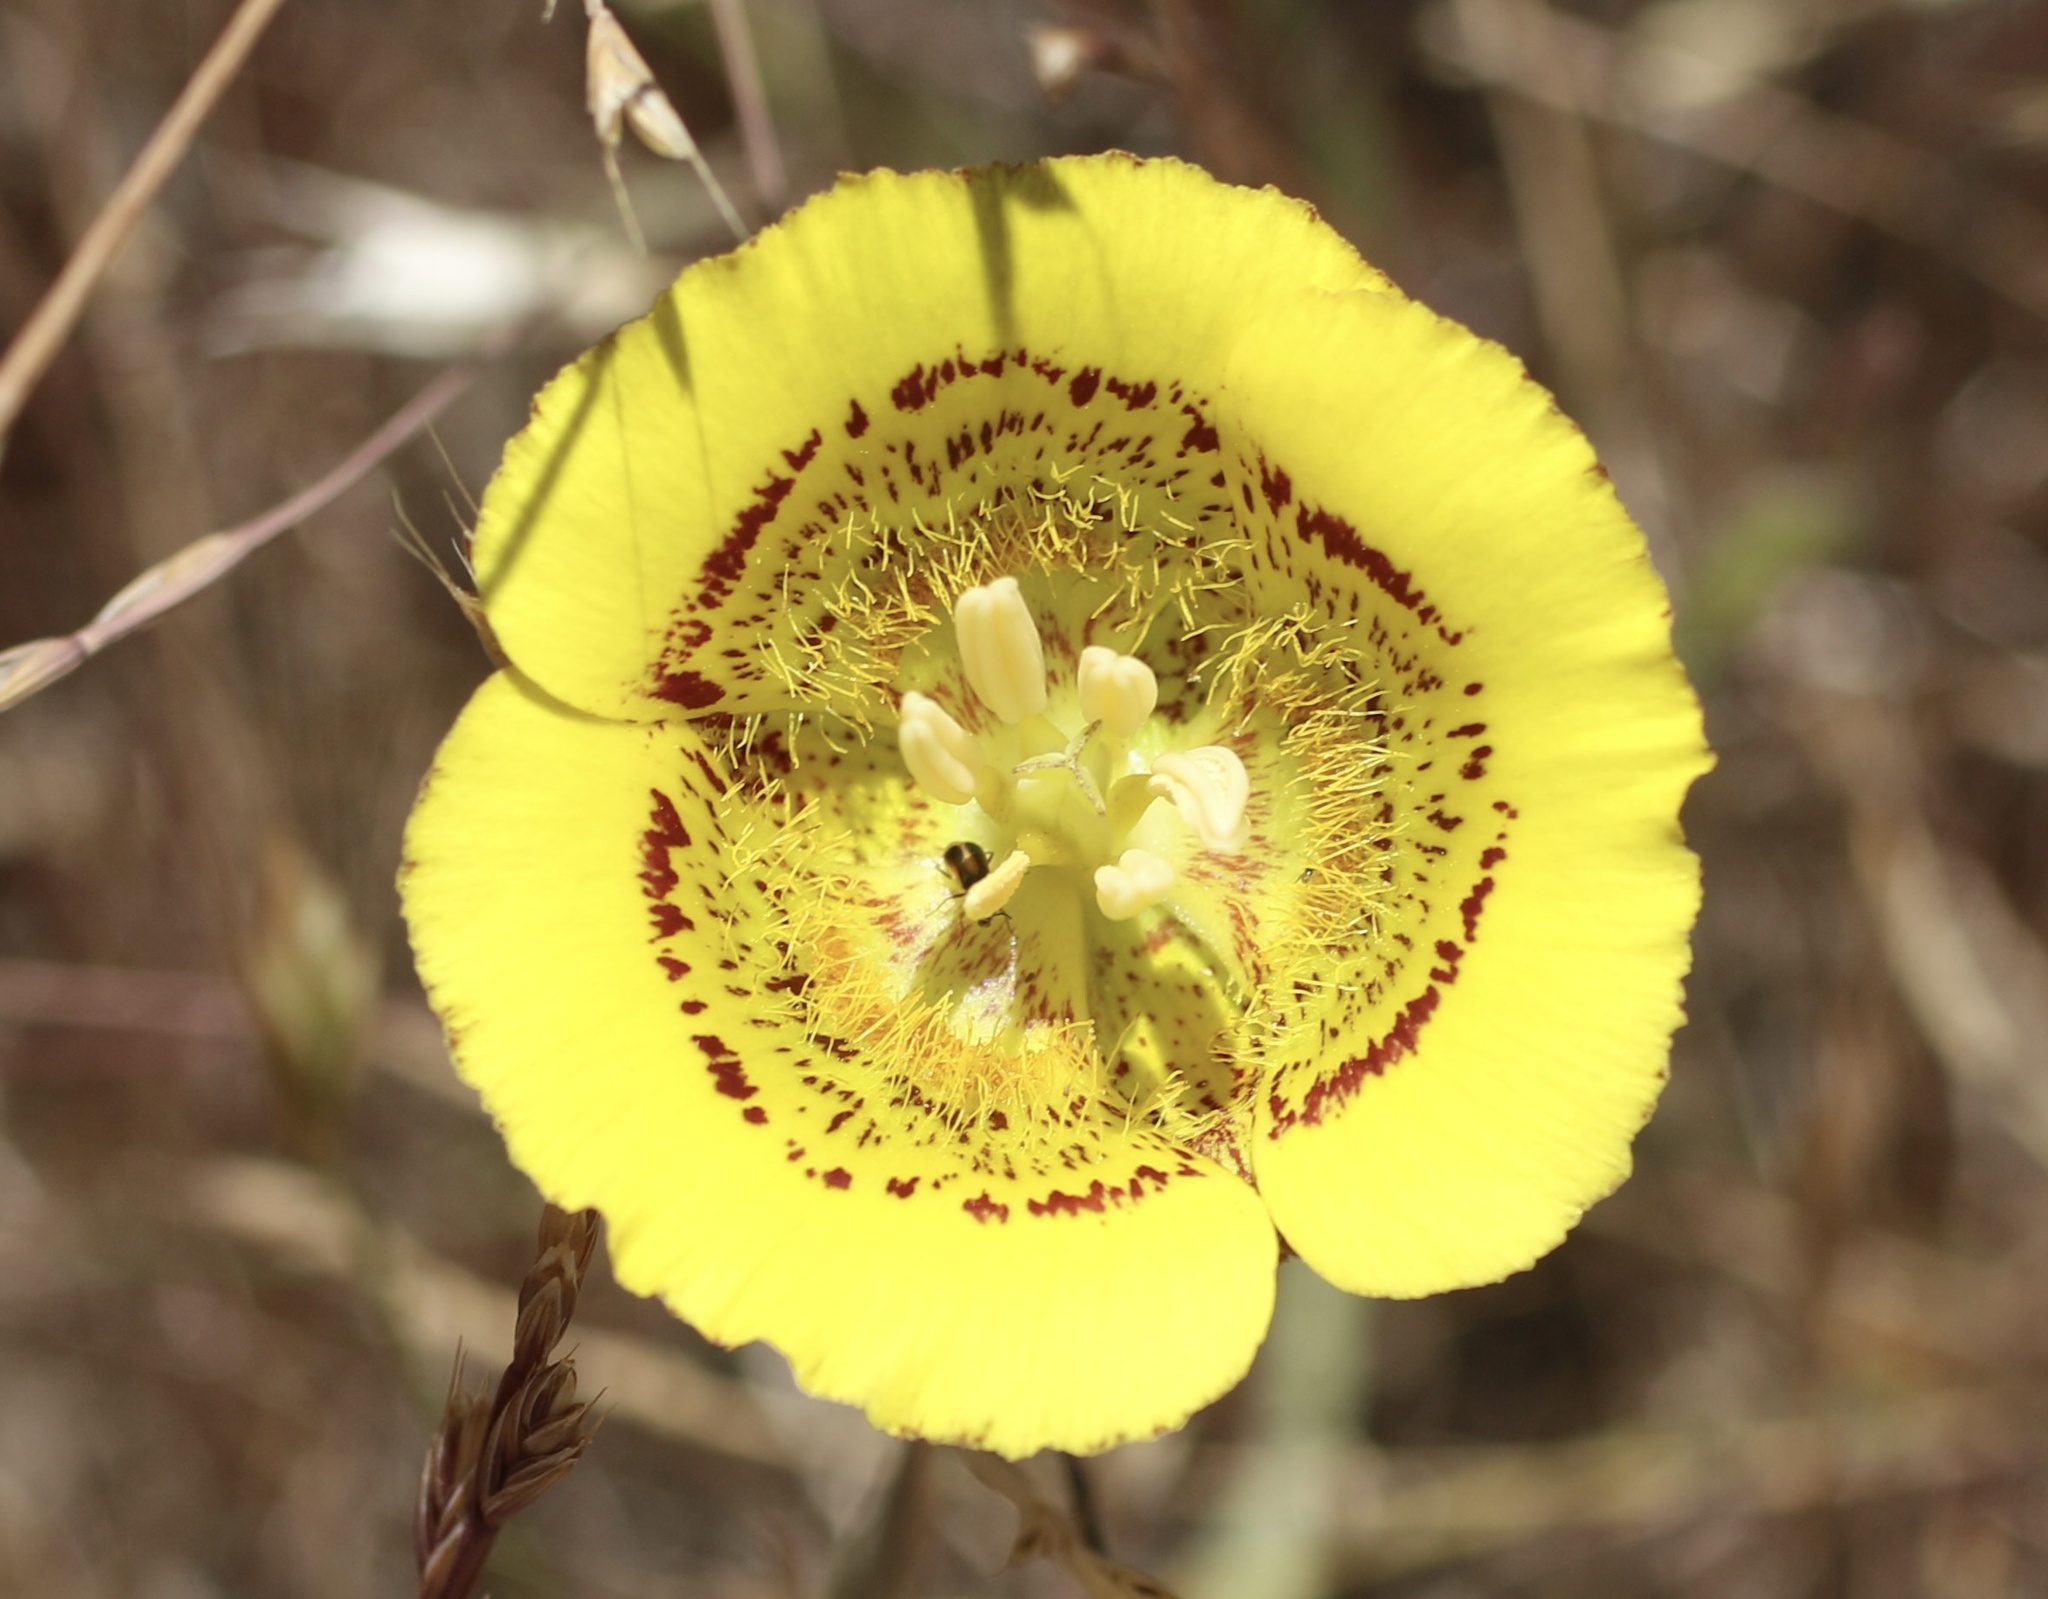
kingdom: Plantae
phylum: Tracheophyta
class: Liliopsida
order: Liliales
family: Liliaceae
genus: Calochortus
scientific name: Calochortus luteus
